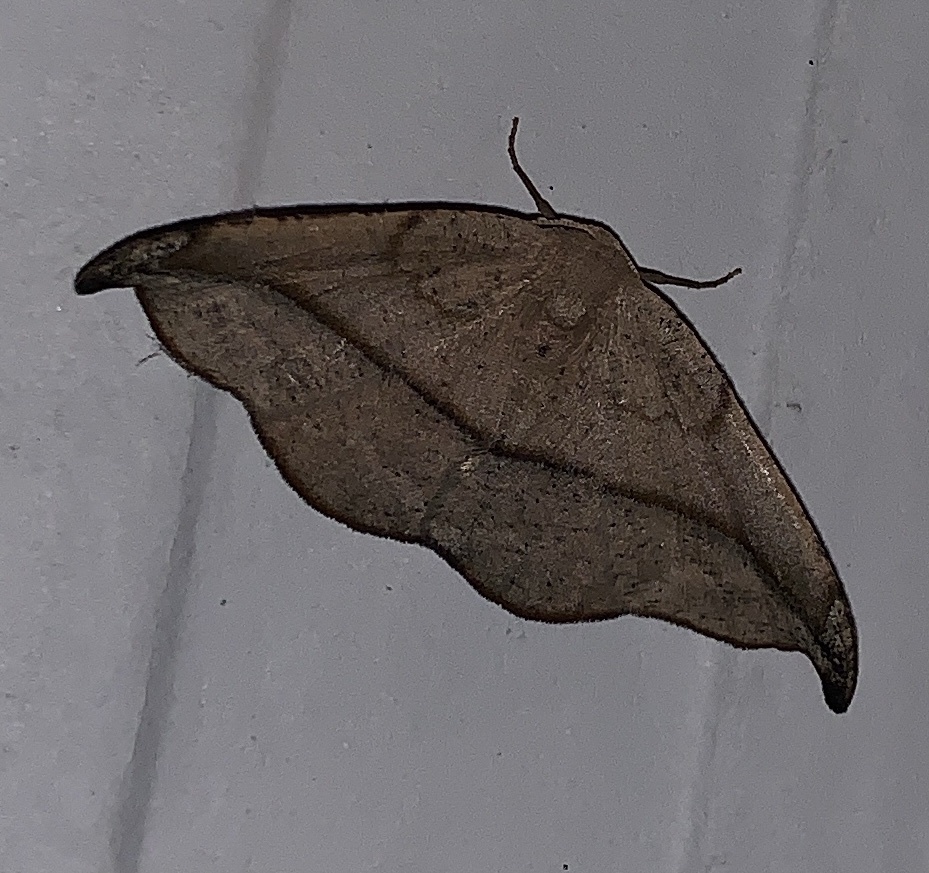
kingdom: Animalia
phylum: Arthropoda
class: Insecta
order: Lepidoptera
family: Geometridae
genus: Patalene
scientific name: Patalene olyzonaria
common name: Juniper geometer moth
